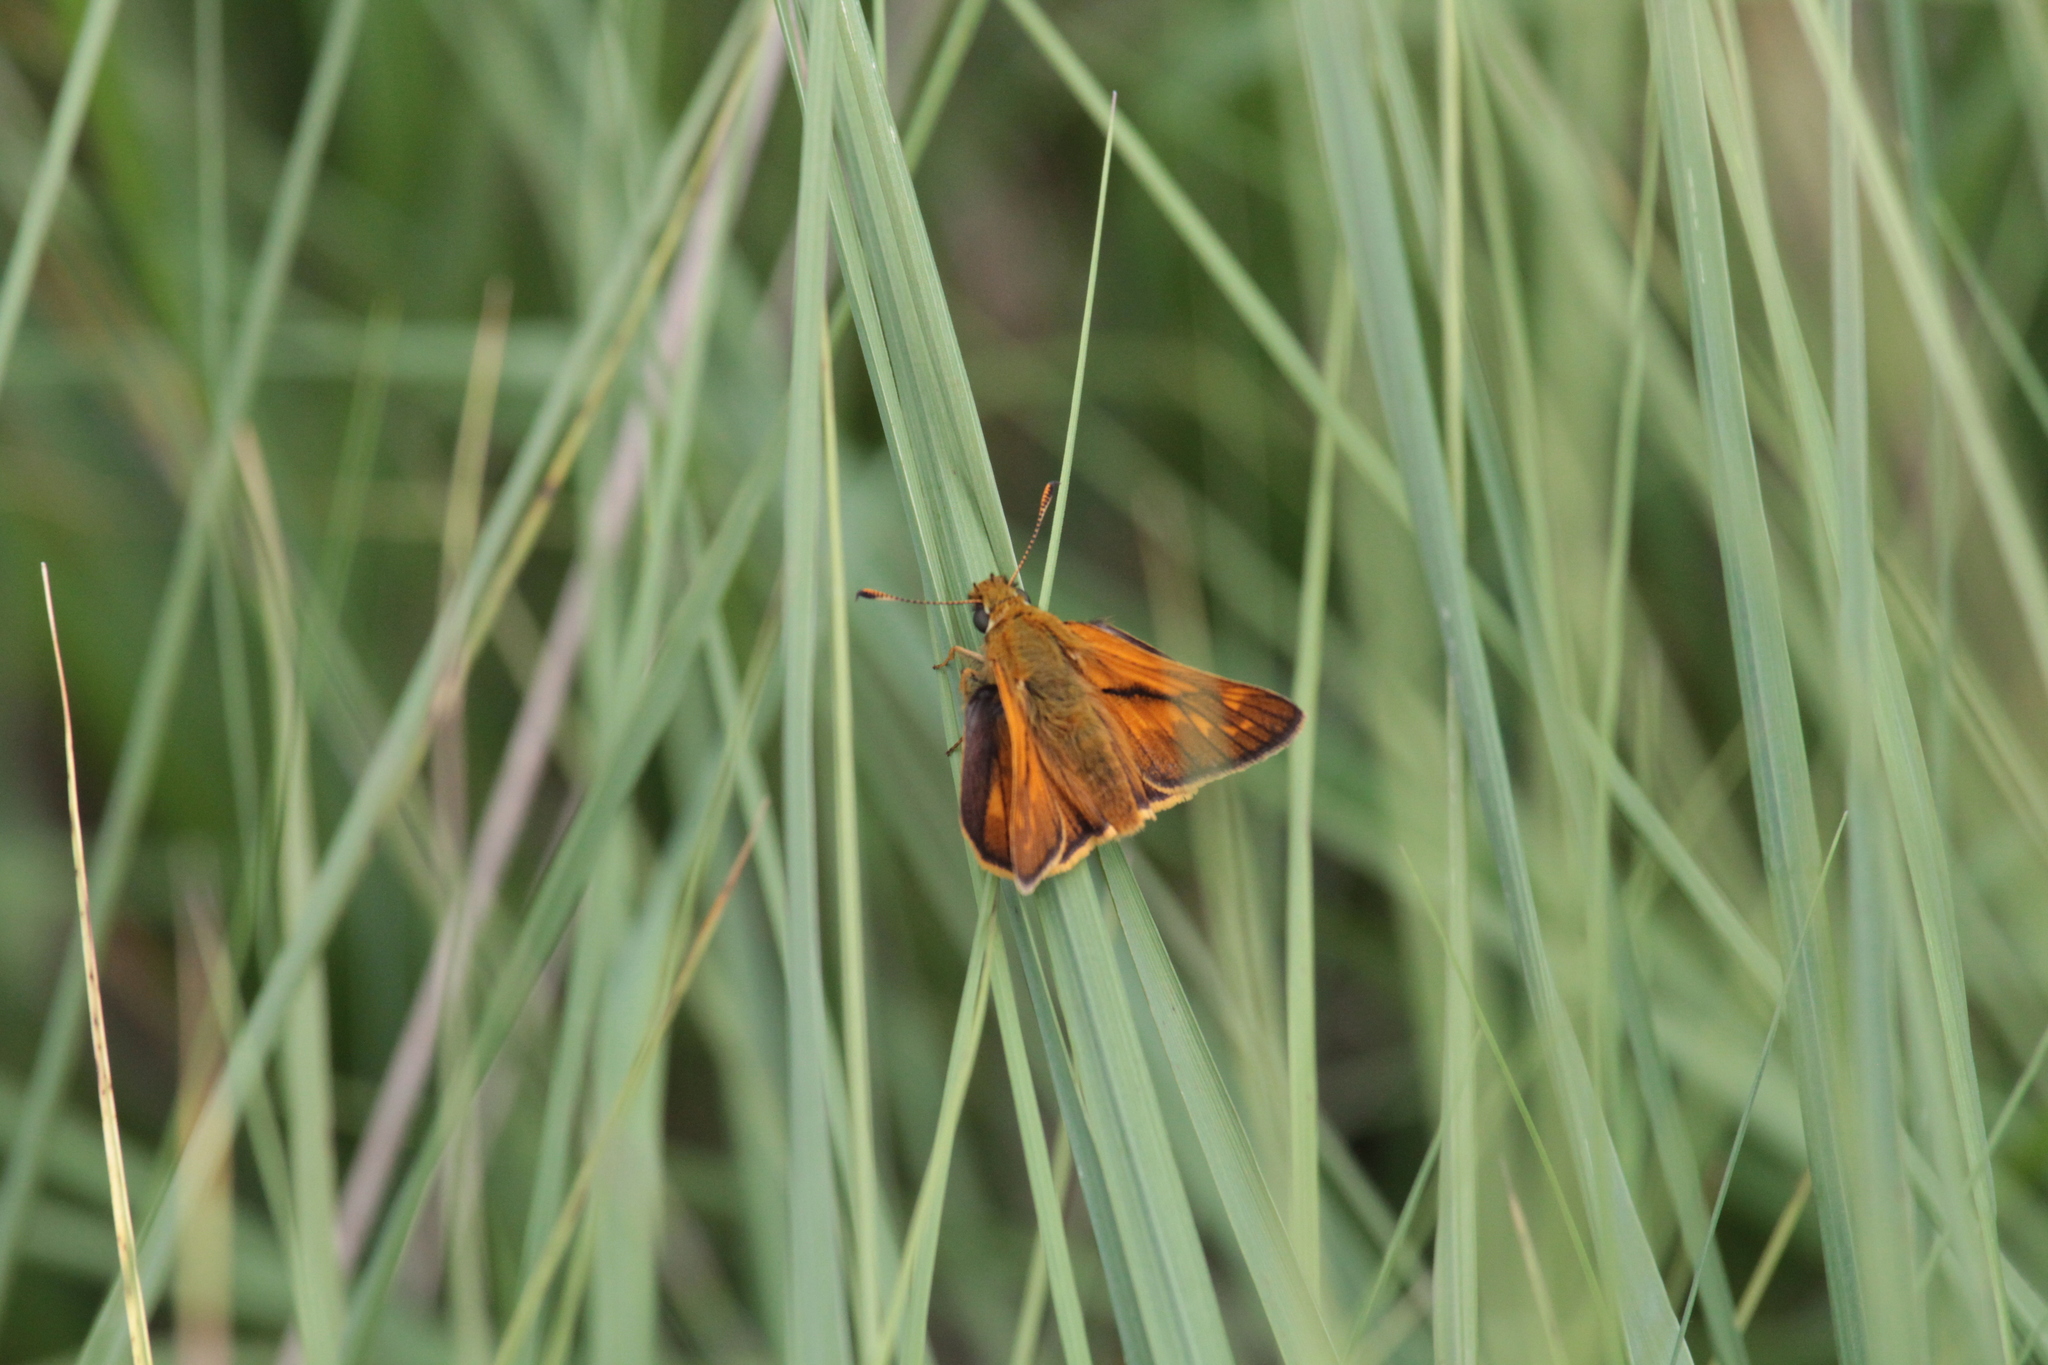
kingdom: Animalia
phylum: Arthropoda
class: Insecta
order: Lepidoptera
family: Hesperiidae
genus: Ochlodes
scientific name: Ochlodes venata
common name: Large skipper
